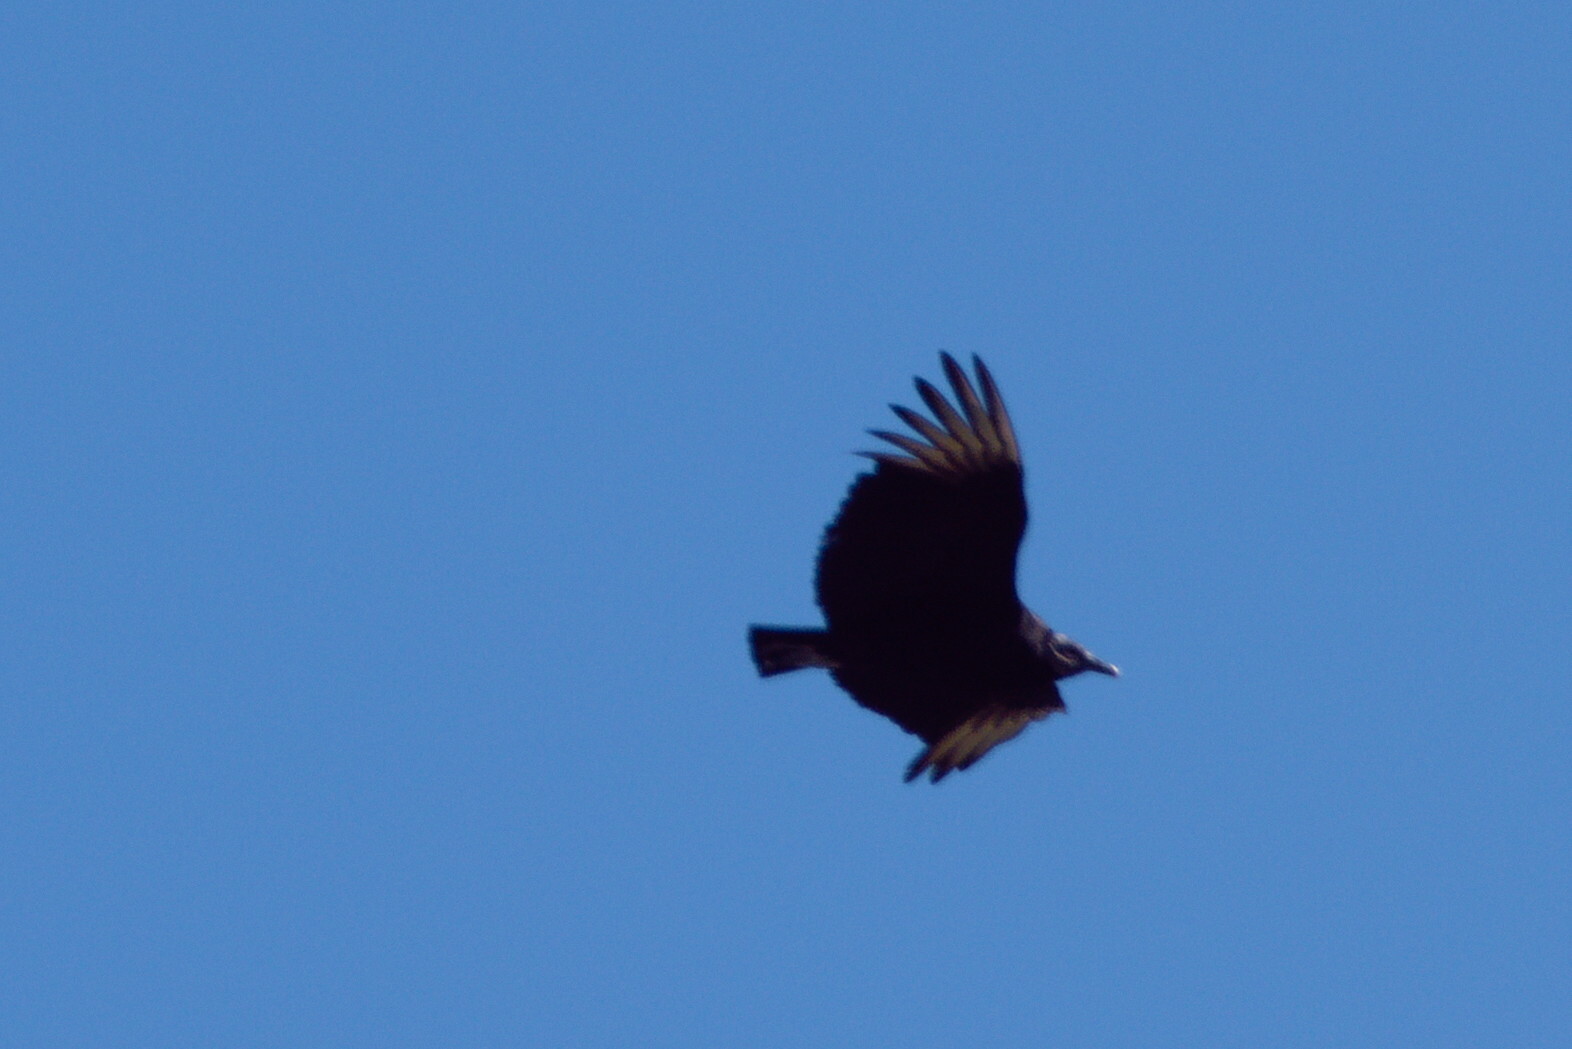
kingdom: Animalia
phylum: Chordata
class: Aves
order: Accipitriformes
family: Cathartidae
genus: Coragyps
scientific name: Coragyps atratus
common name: Black vulture
